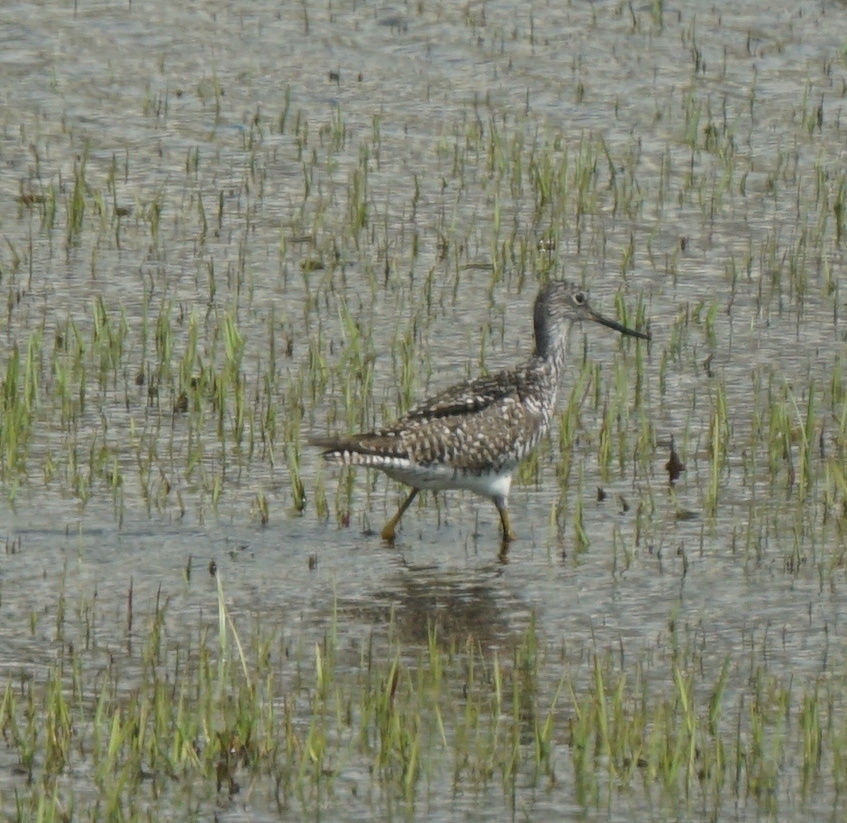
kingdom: Animalia
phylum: Chordata
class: Aves
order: Charadriiformes
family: Scolopacidae
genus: Tringa
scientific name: Tringa solitaria
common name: Solitary sandpiper
